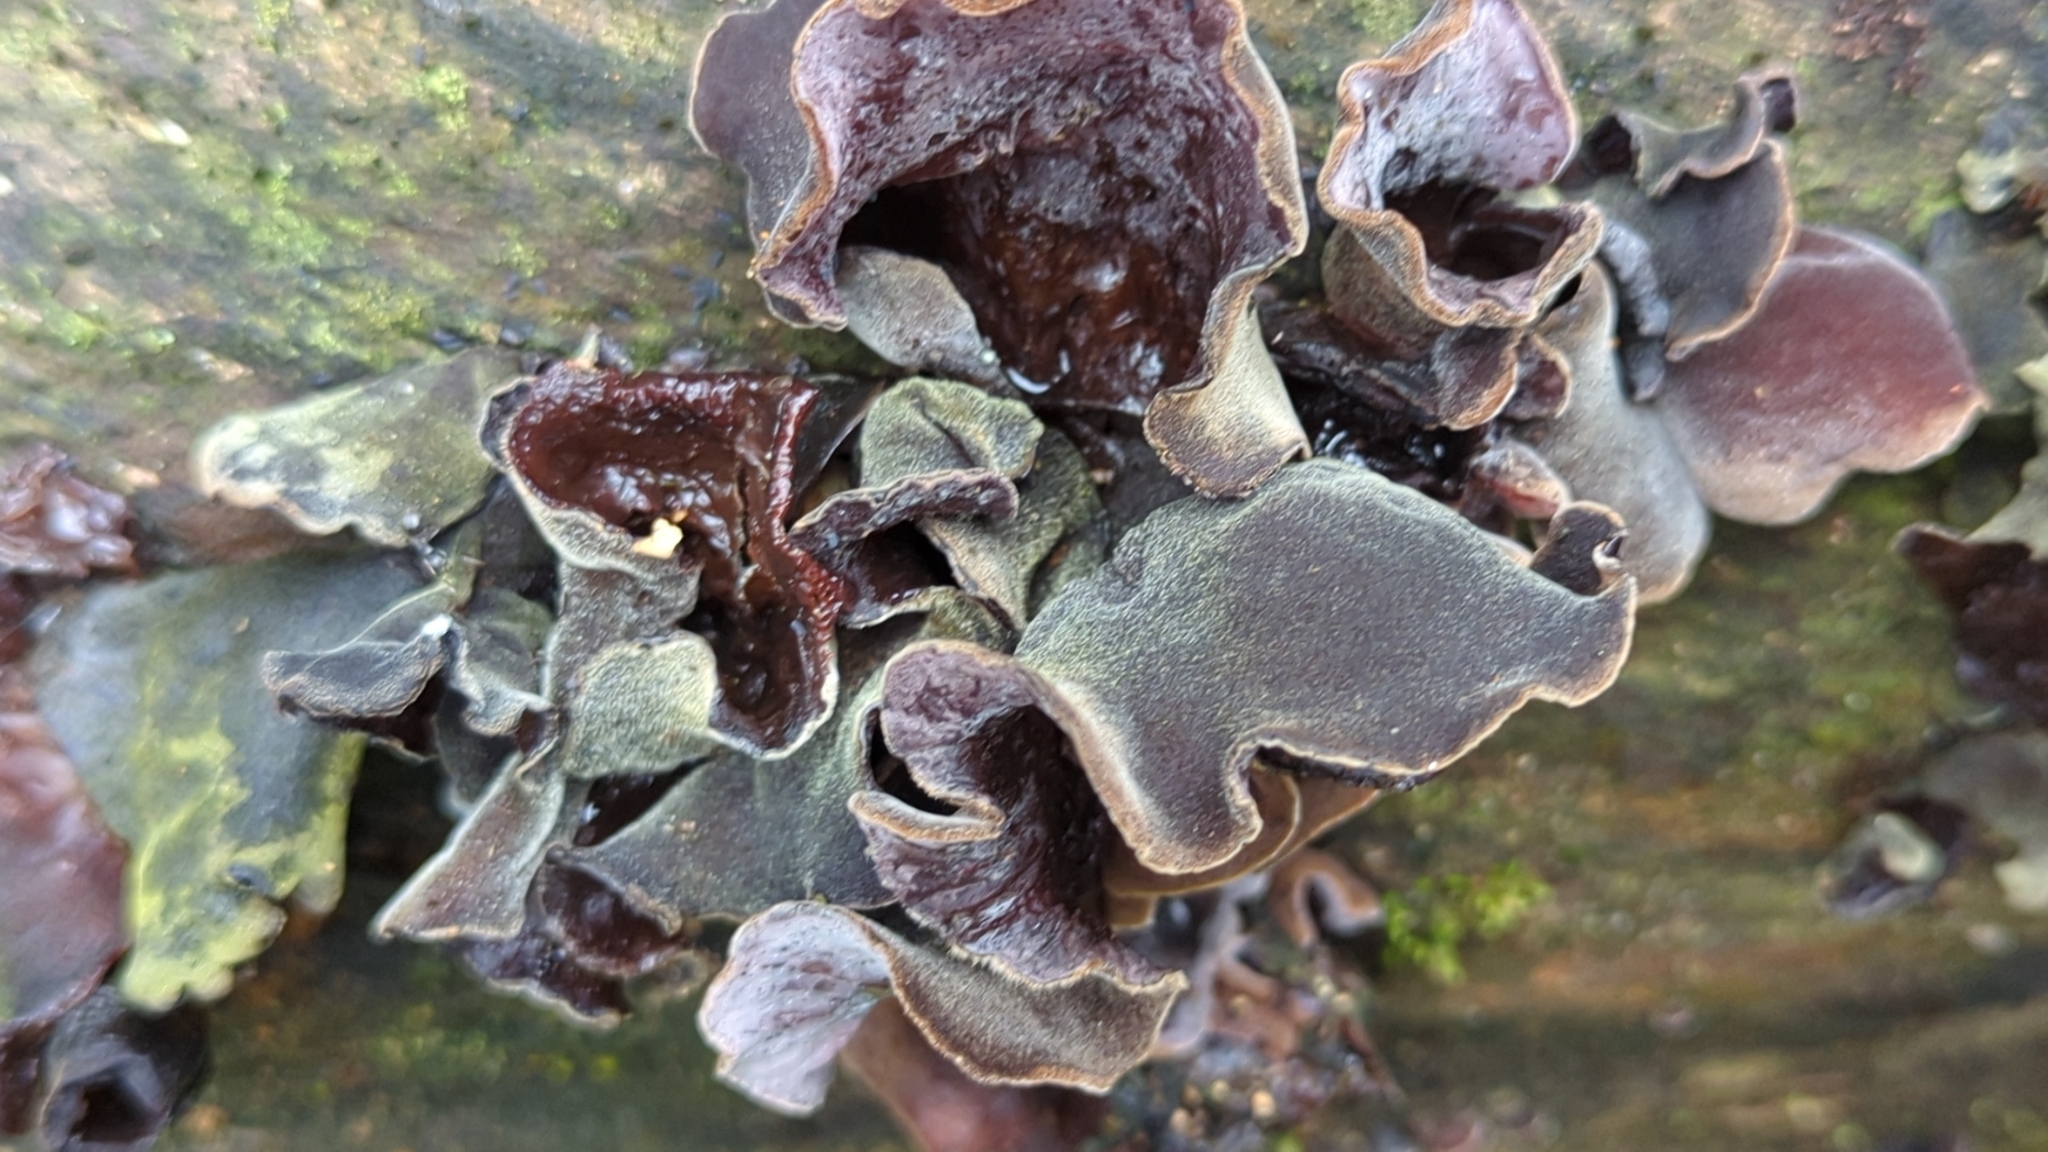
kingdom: Fungi
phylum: Basidiomycota
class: Agaricomycetes
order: Auriculariales
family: Auriculariaceae
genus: Auricularia
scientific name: Auricularia nigricans
